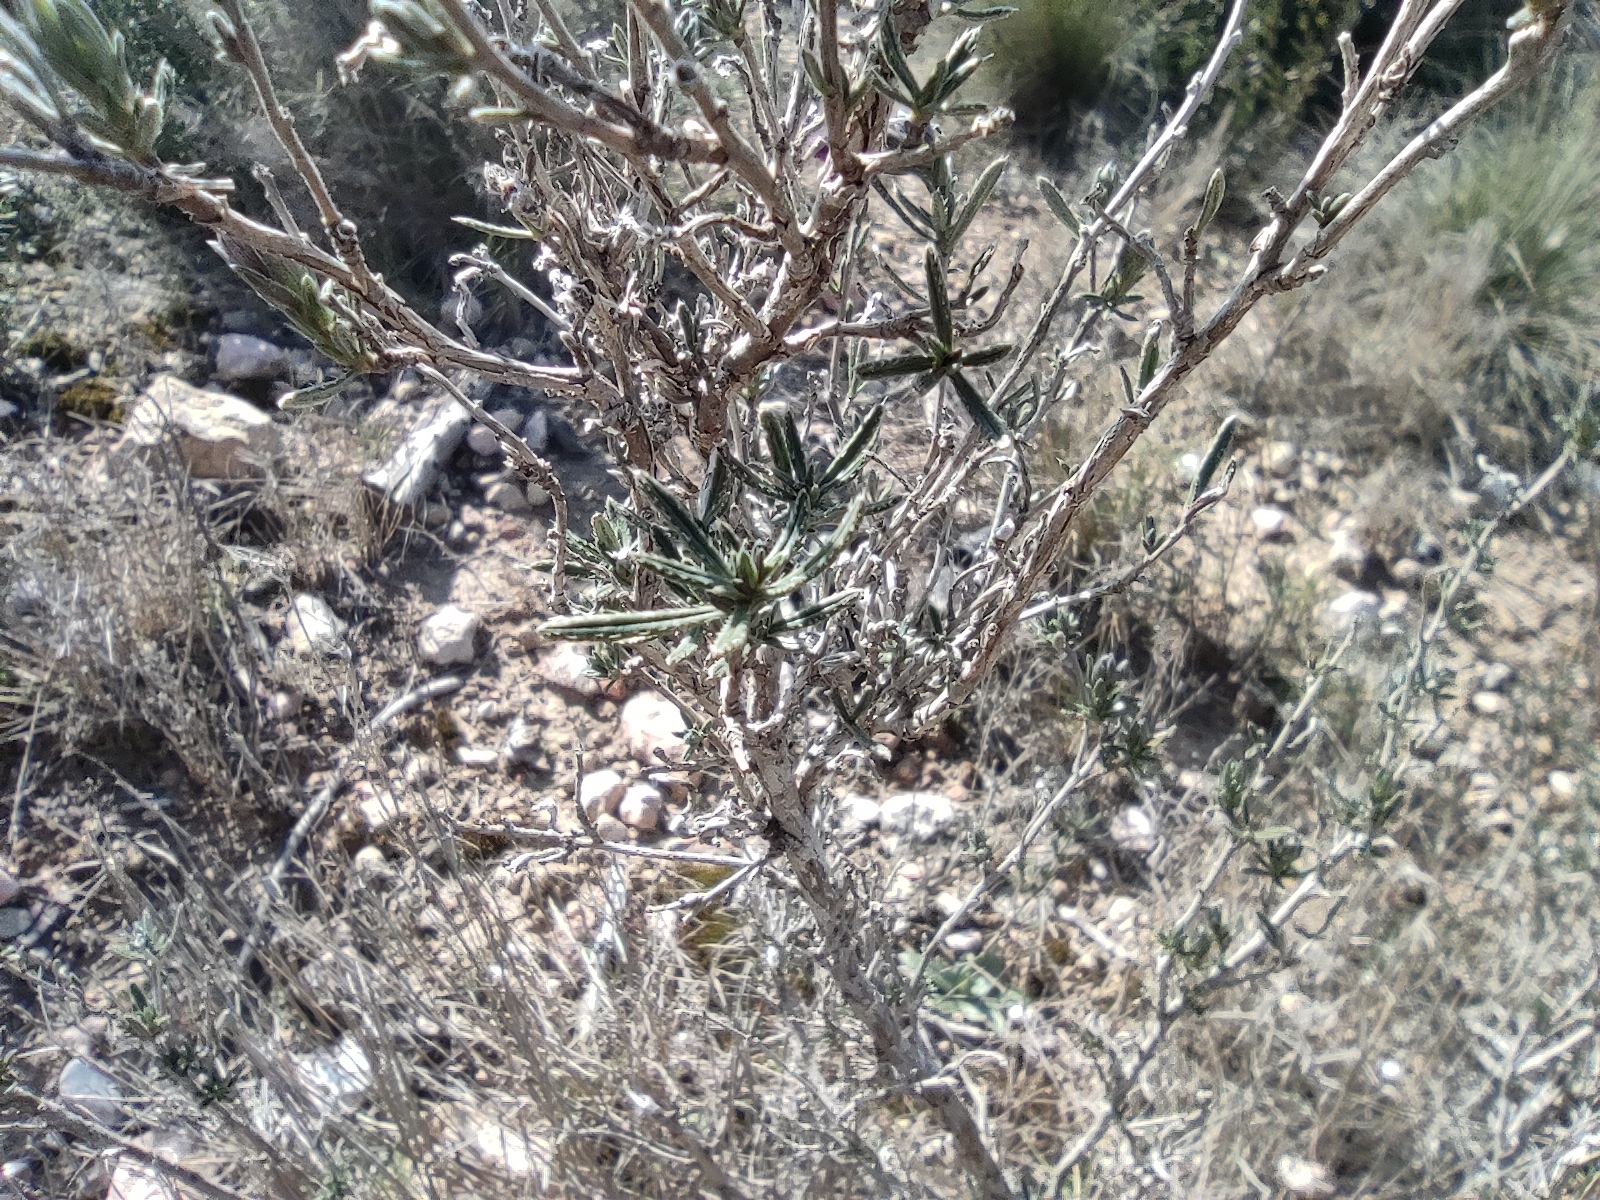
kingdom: Plantae
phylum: Tracheophyta
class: Magnoliopsida
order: Boraginales
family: Boraginaceae
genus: Lithodora
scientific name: Lithodora fruticosa
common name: Shrubby gromwell
